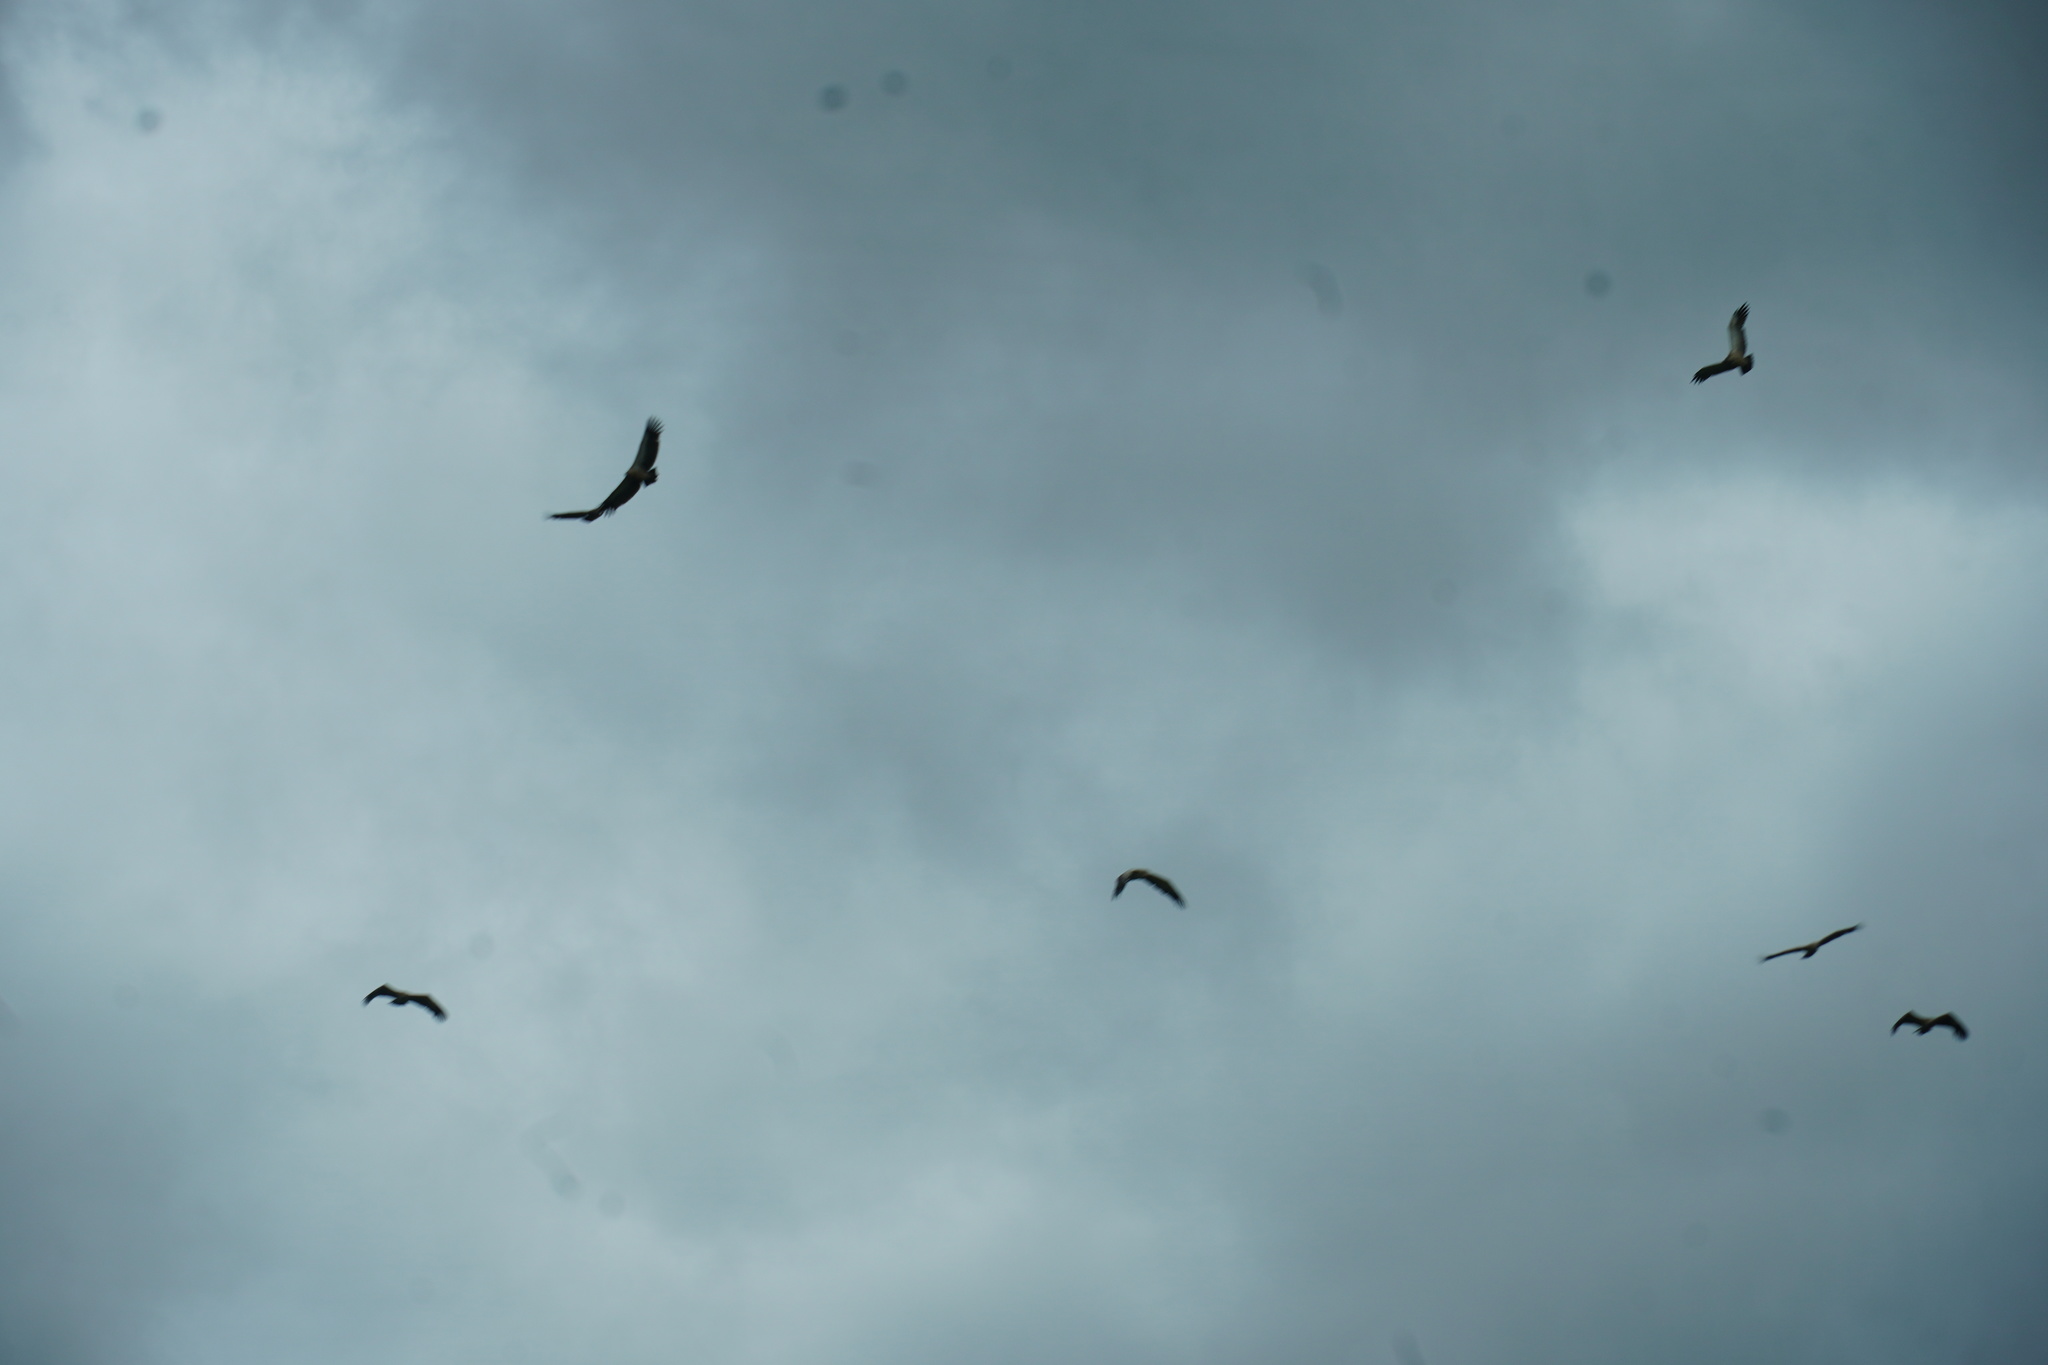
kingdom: Animalia
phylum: Chordata
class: Aves
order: Accipitriformes
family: Accipitridae
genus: Gyps
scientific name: Gyps coprotheres
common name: Cape vulture
